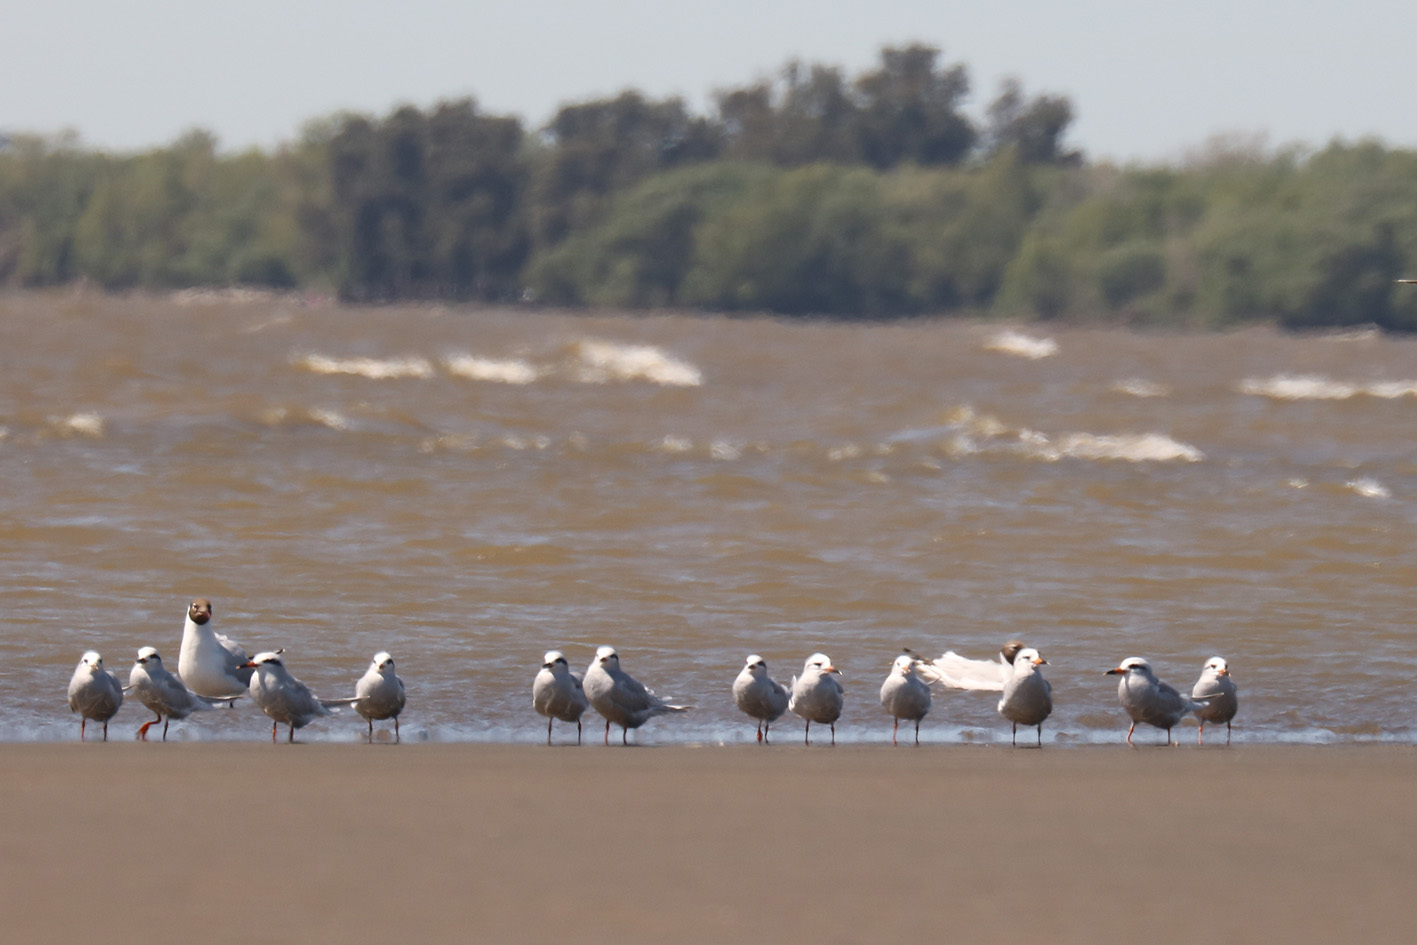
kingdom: Animalia
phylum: Chordata
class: Aves
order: Charadriiformes
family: Laridae
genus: Sterna
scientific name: Sterna trudeaui
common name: Snowy-crowned tern
